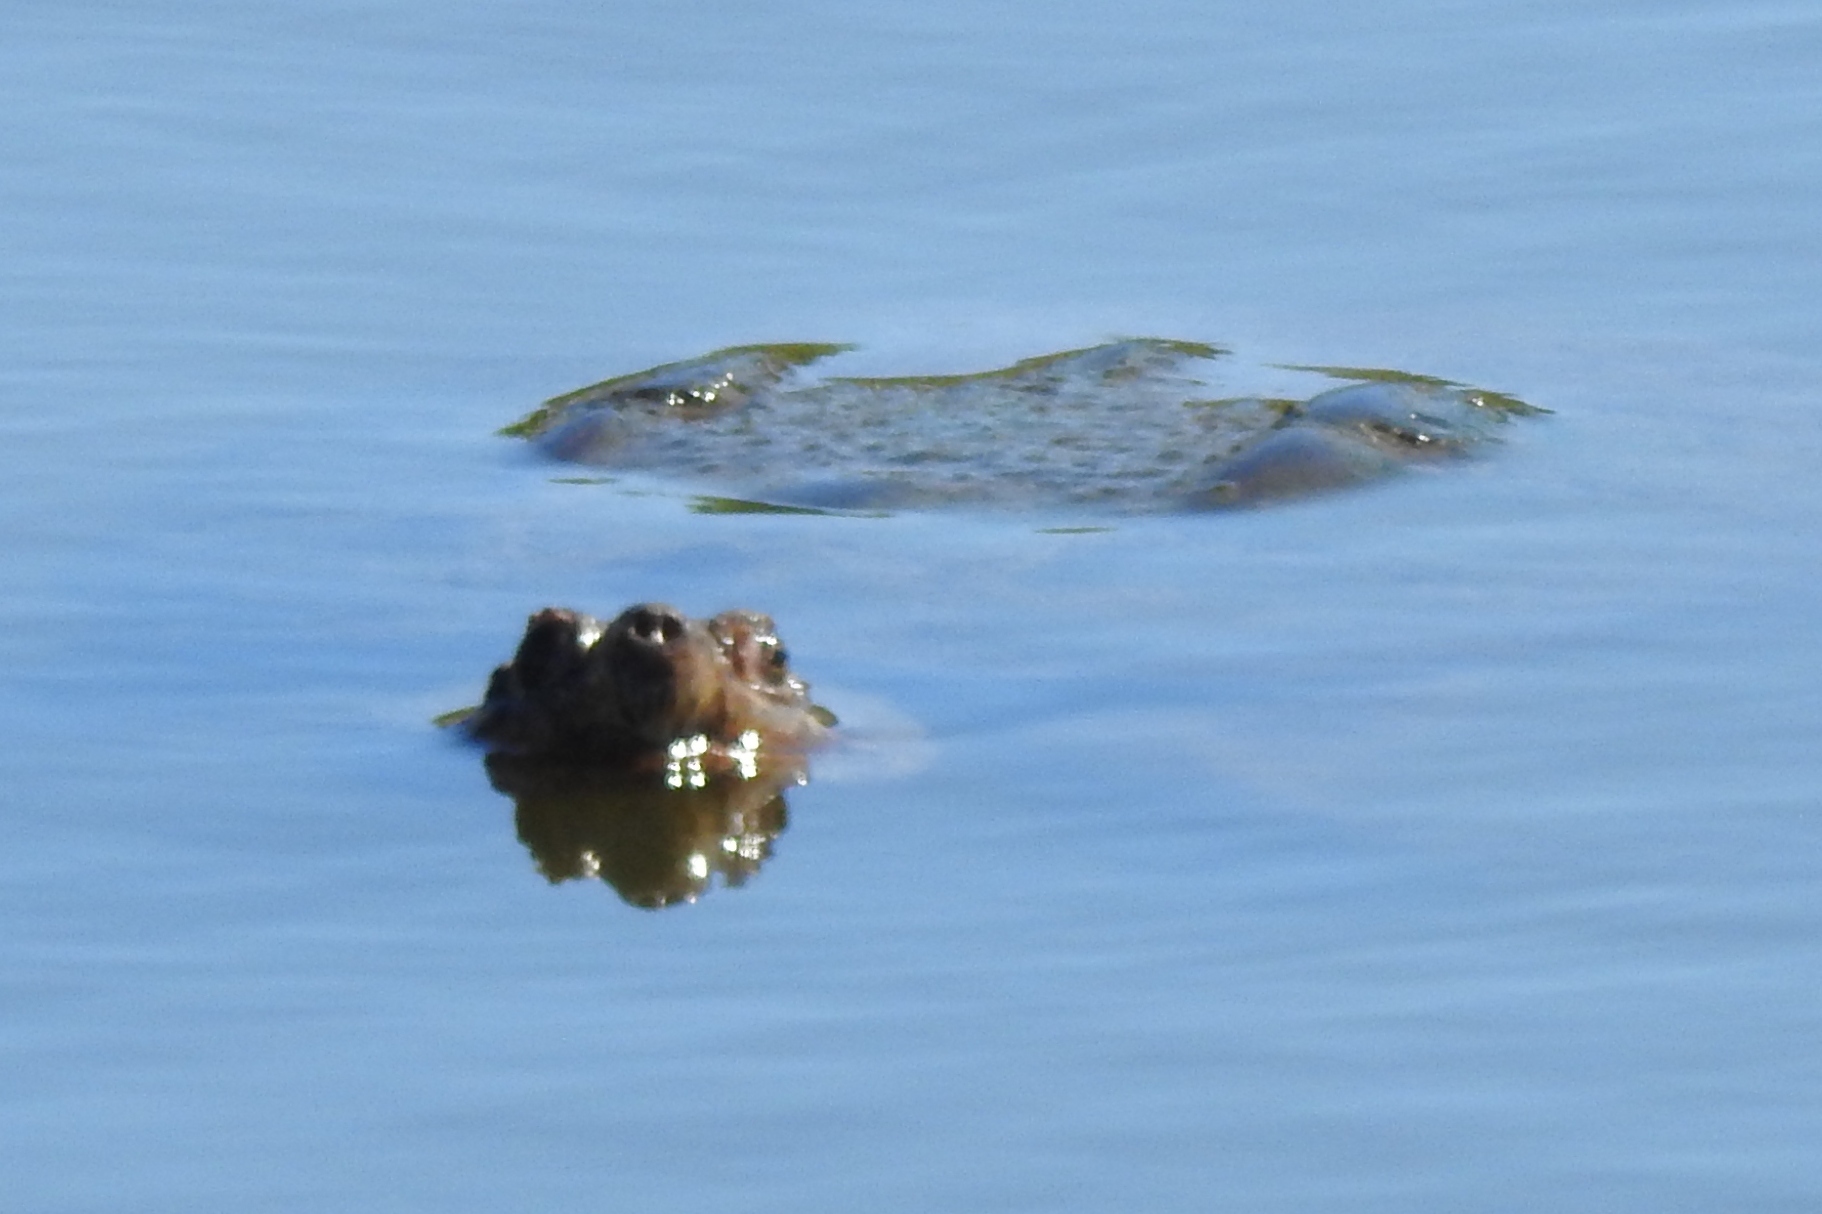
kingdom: Animalia
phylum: Chordata
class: Testudines
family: Chelydridae
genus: Chelydra
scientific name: Chelydra serpentina
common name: Common snapping turtle
